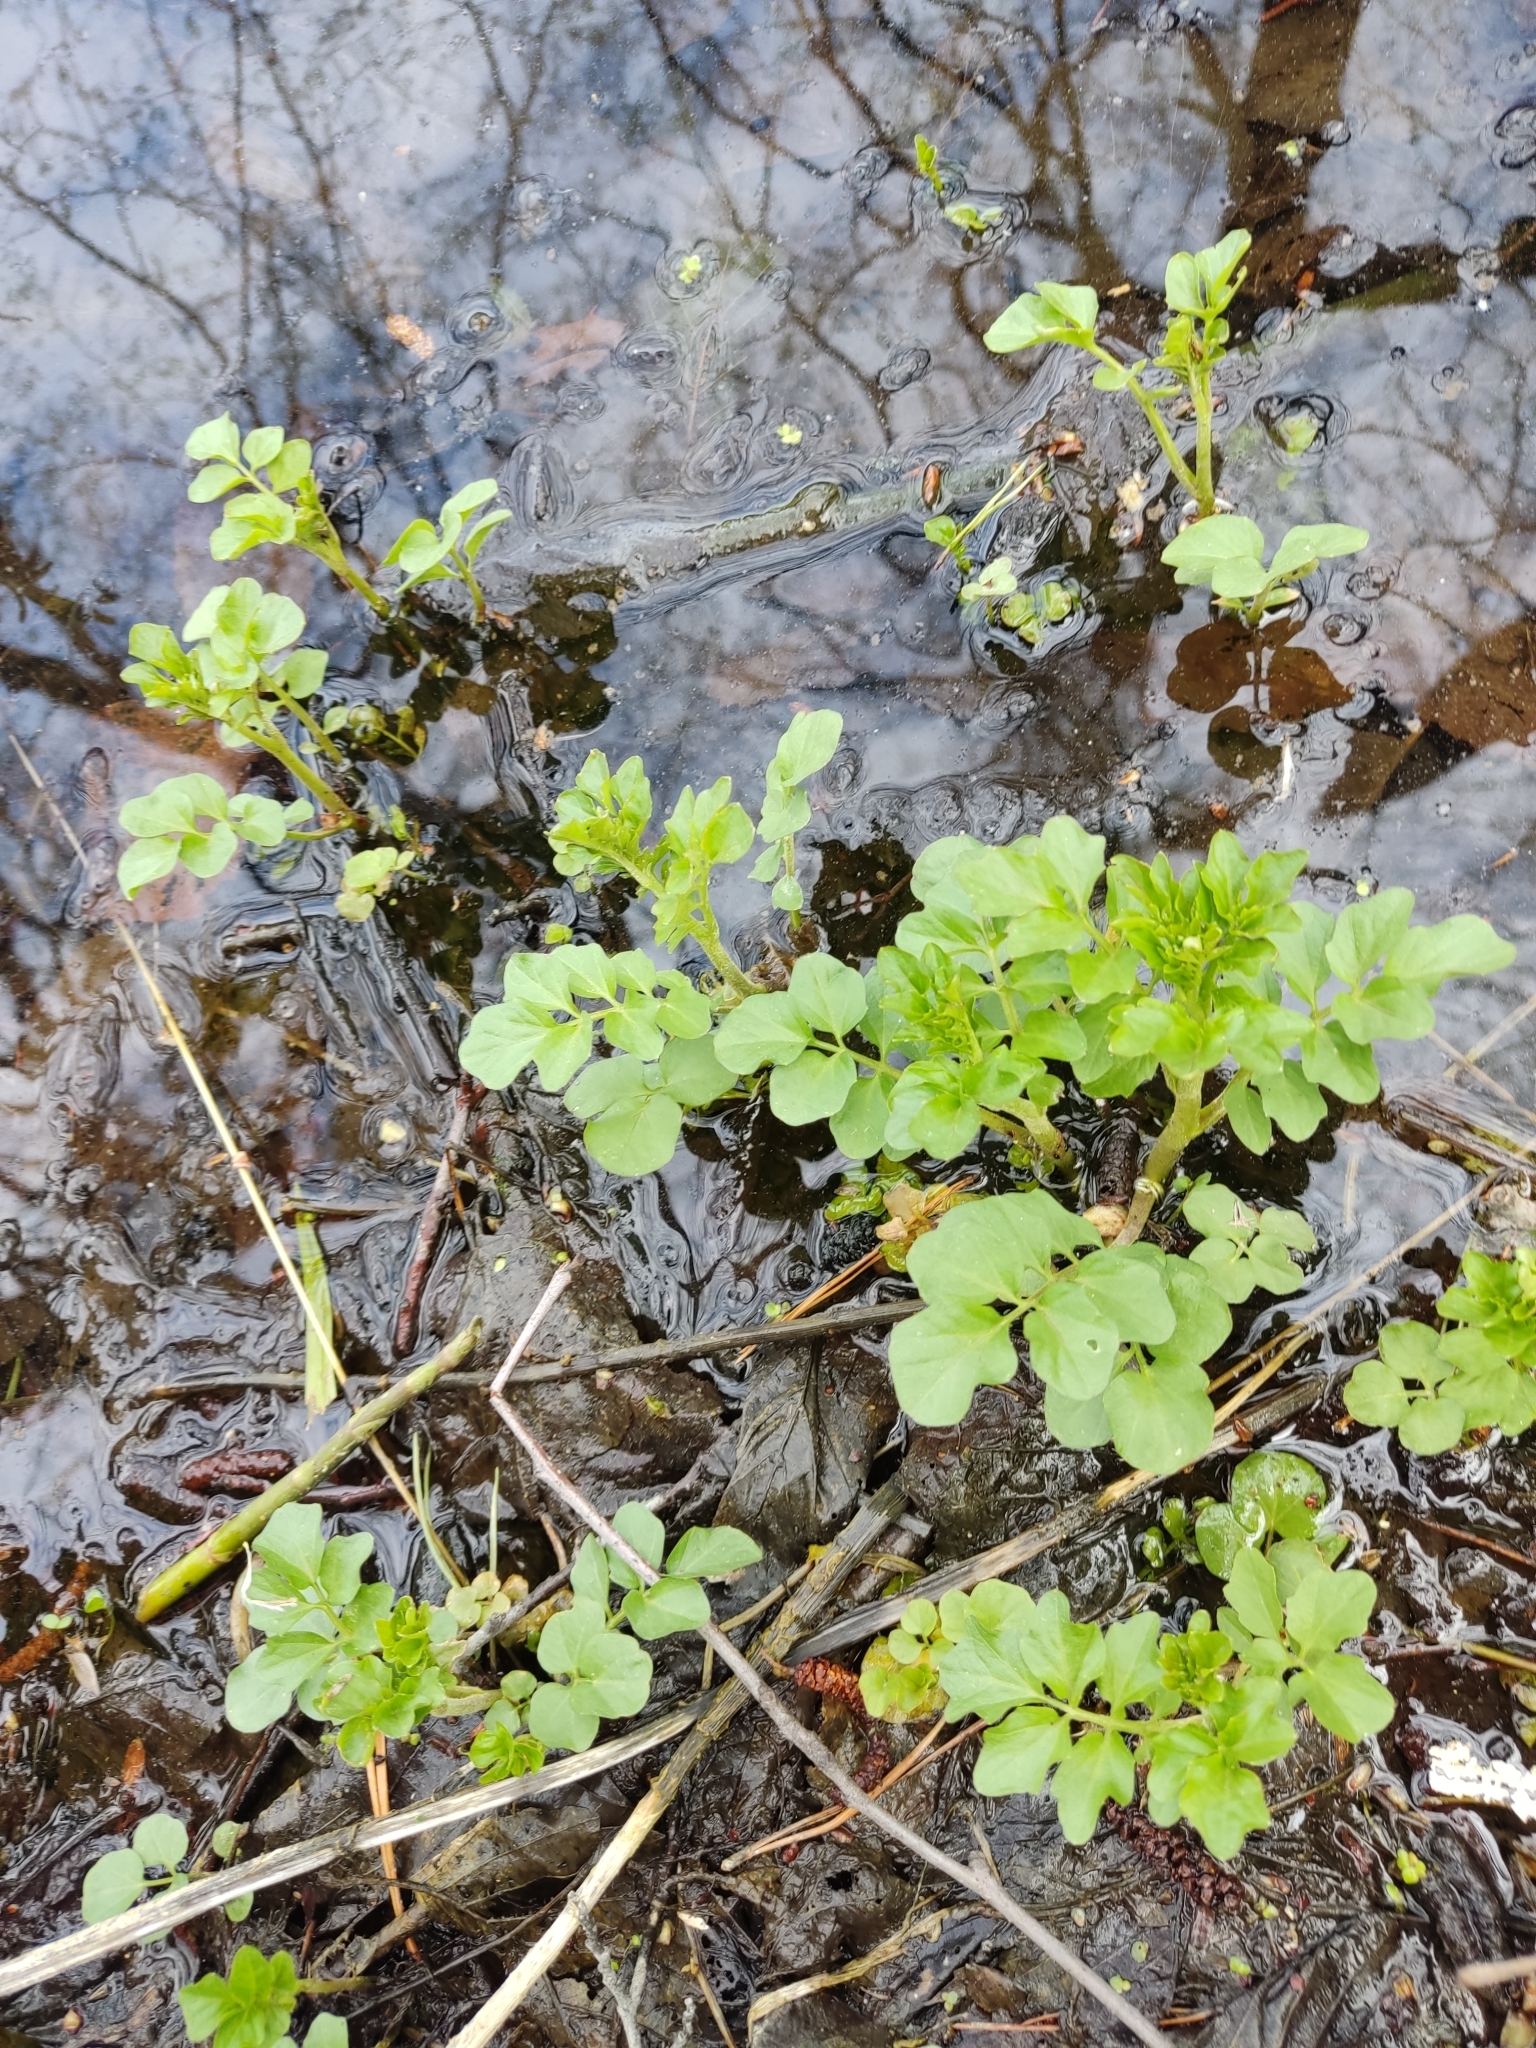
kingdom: Plantae
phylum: Tracheophyta
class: Magnoliopsida
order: Brassicales
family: Brassicaceae
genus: Cardamine
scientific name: Cardamine amara
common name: Large bitter-cress
